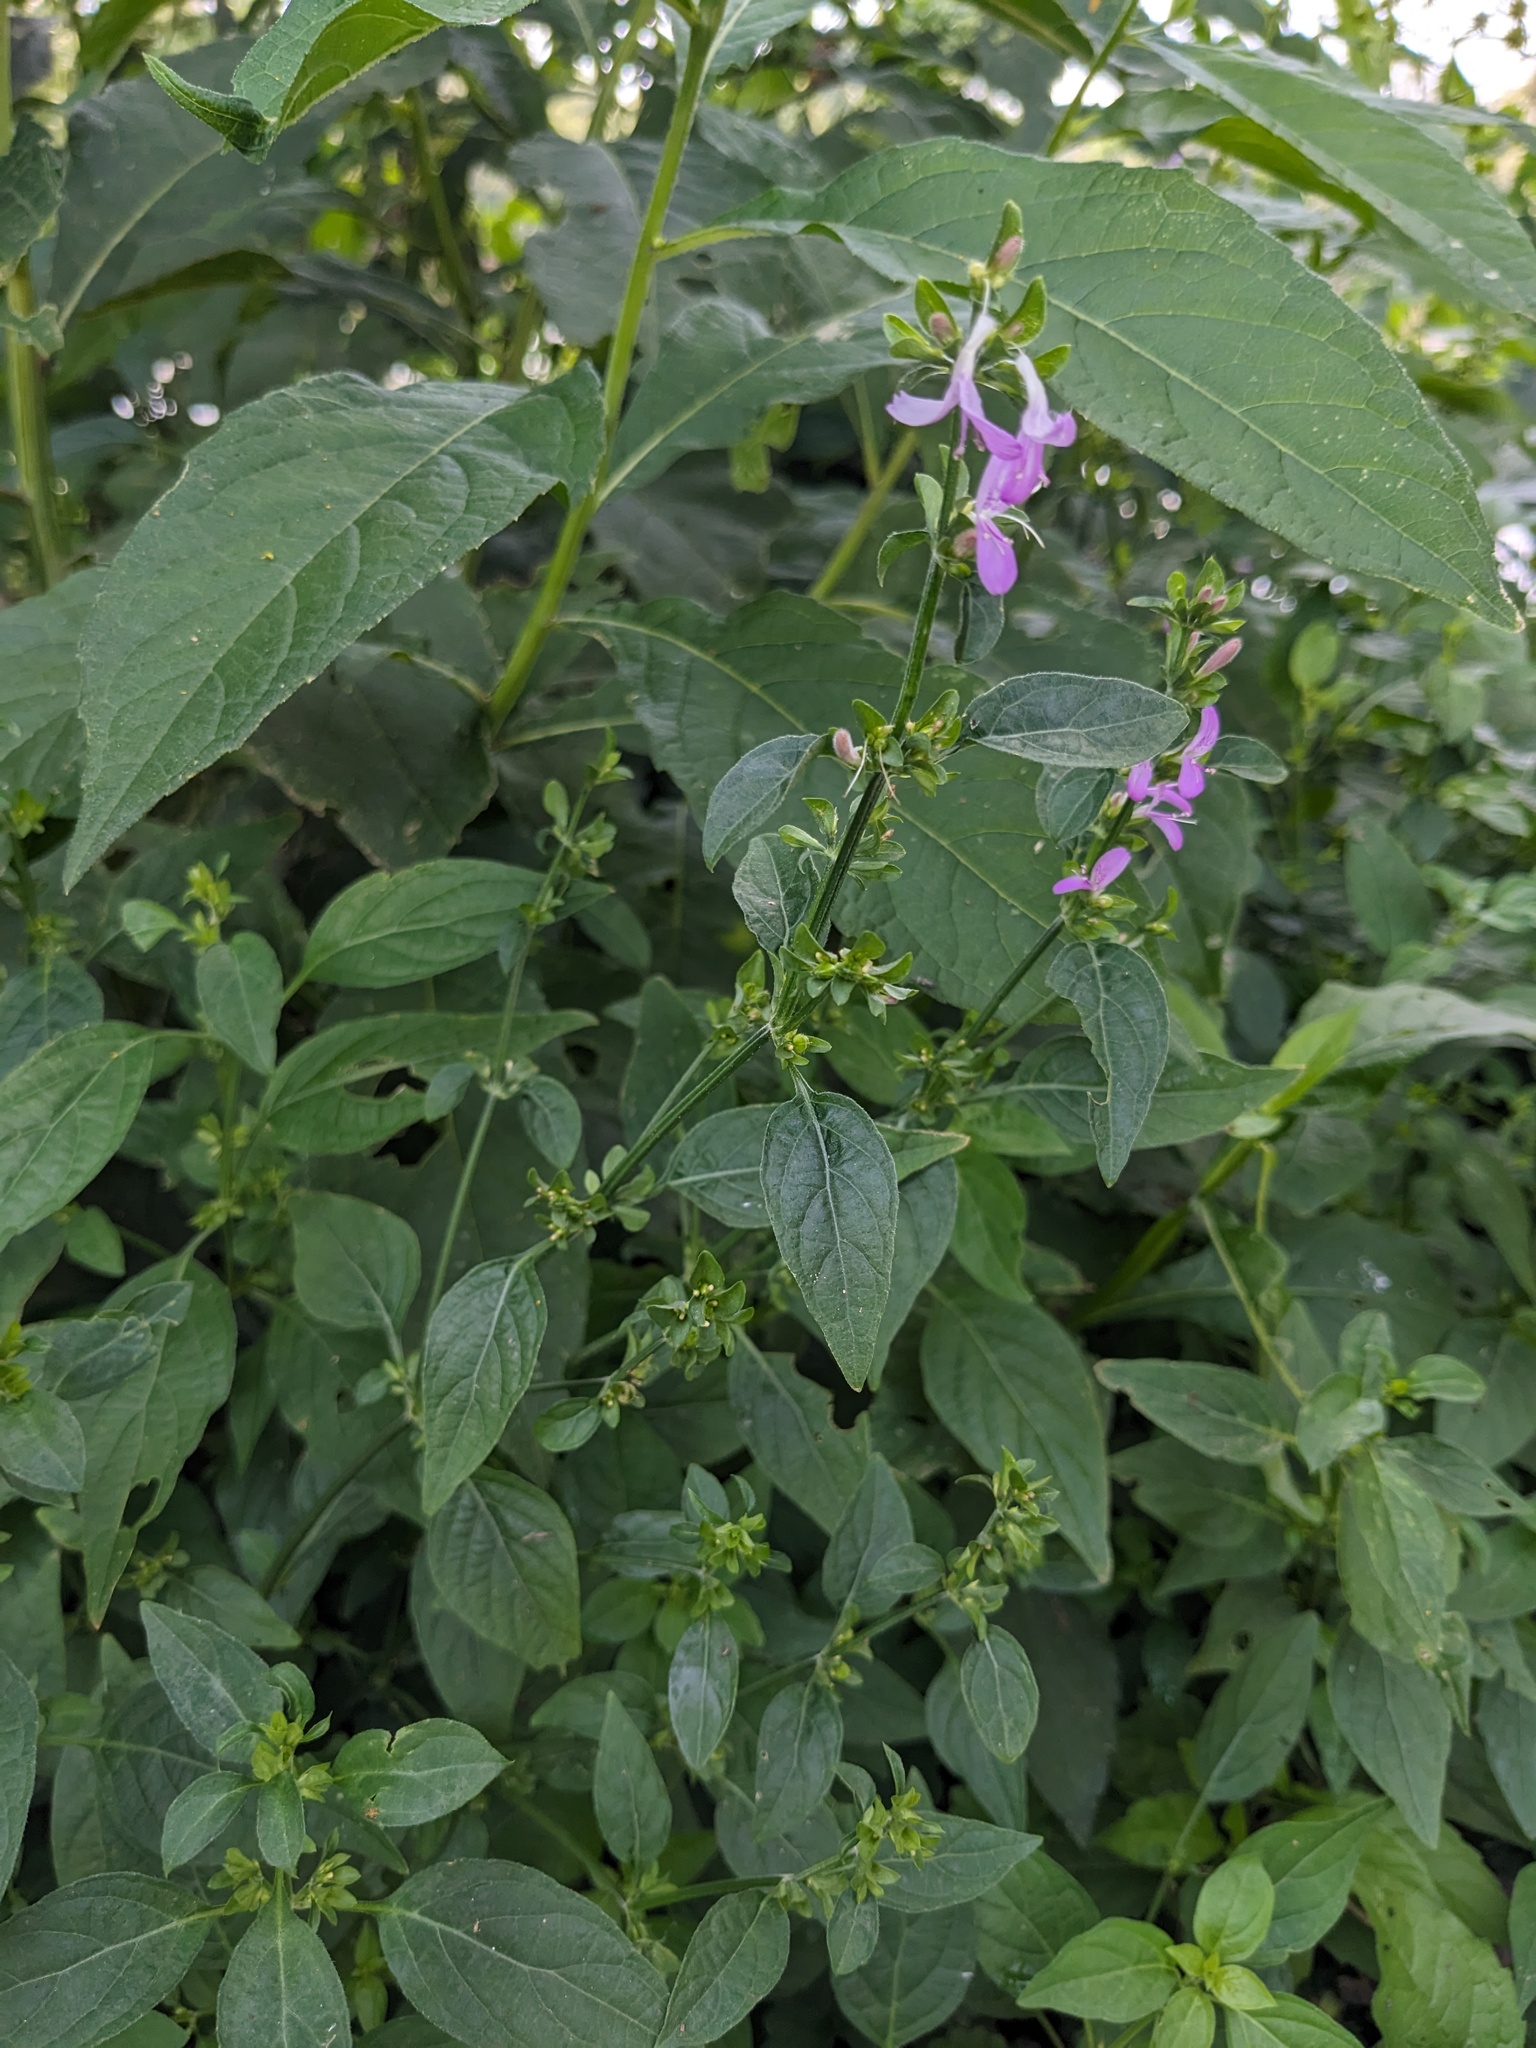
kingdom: Plantae
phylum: Tracheophyta
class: Magnoliopsida
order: Lamiales
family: Acanthaceae
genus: Dicliptera
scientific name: Dicliptera brachiata
